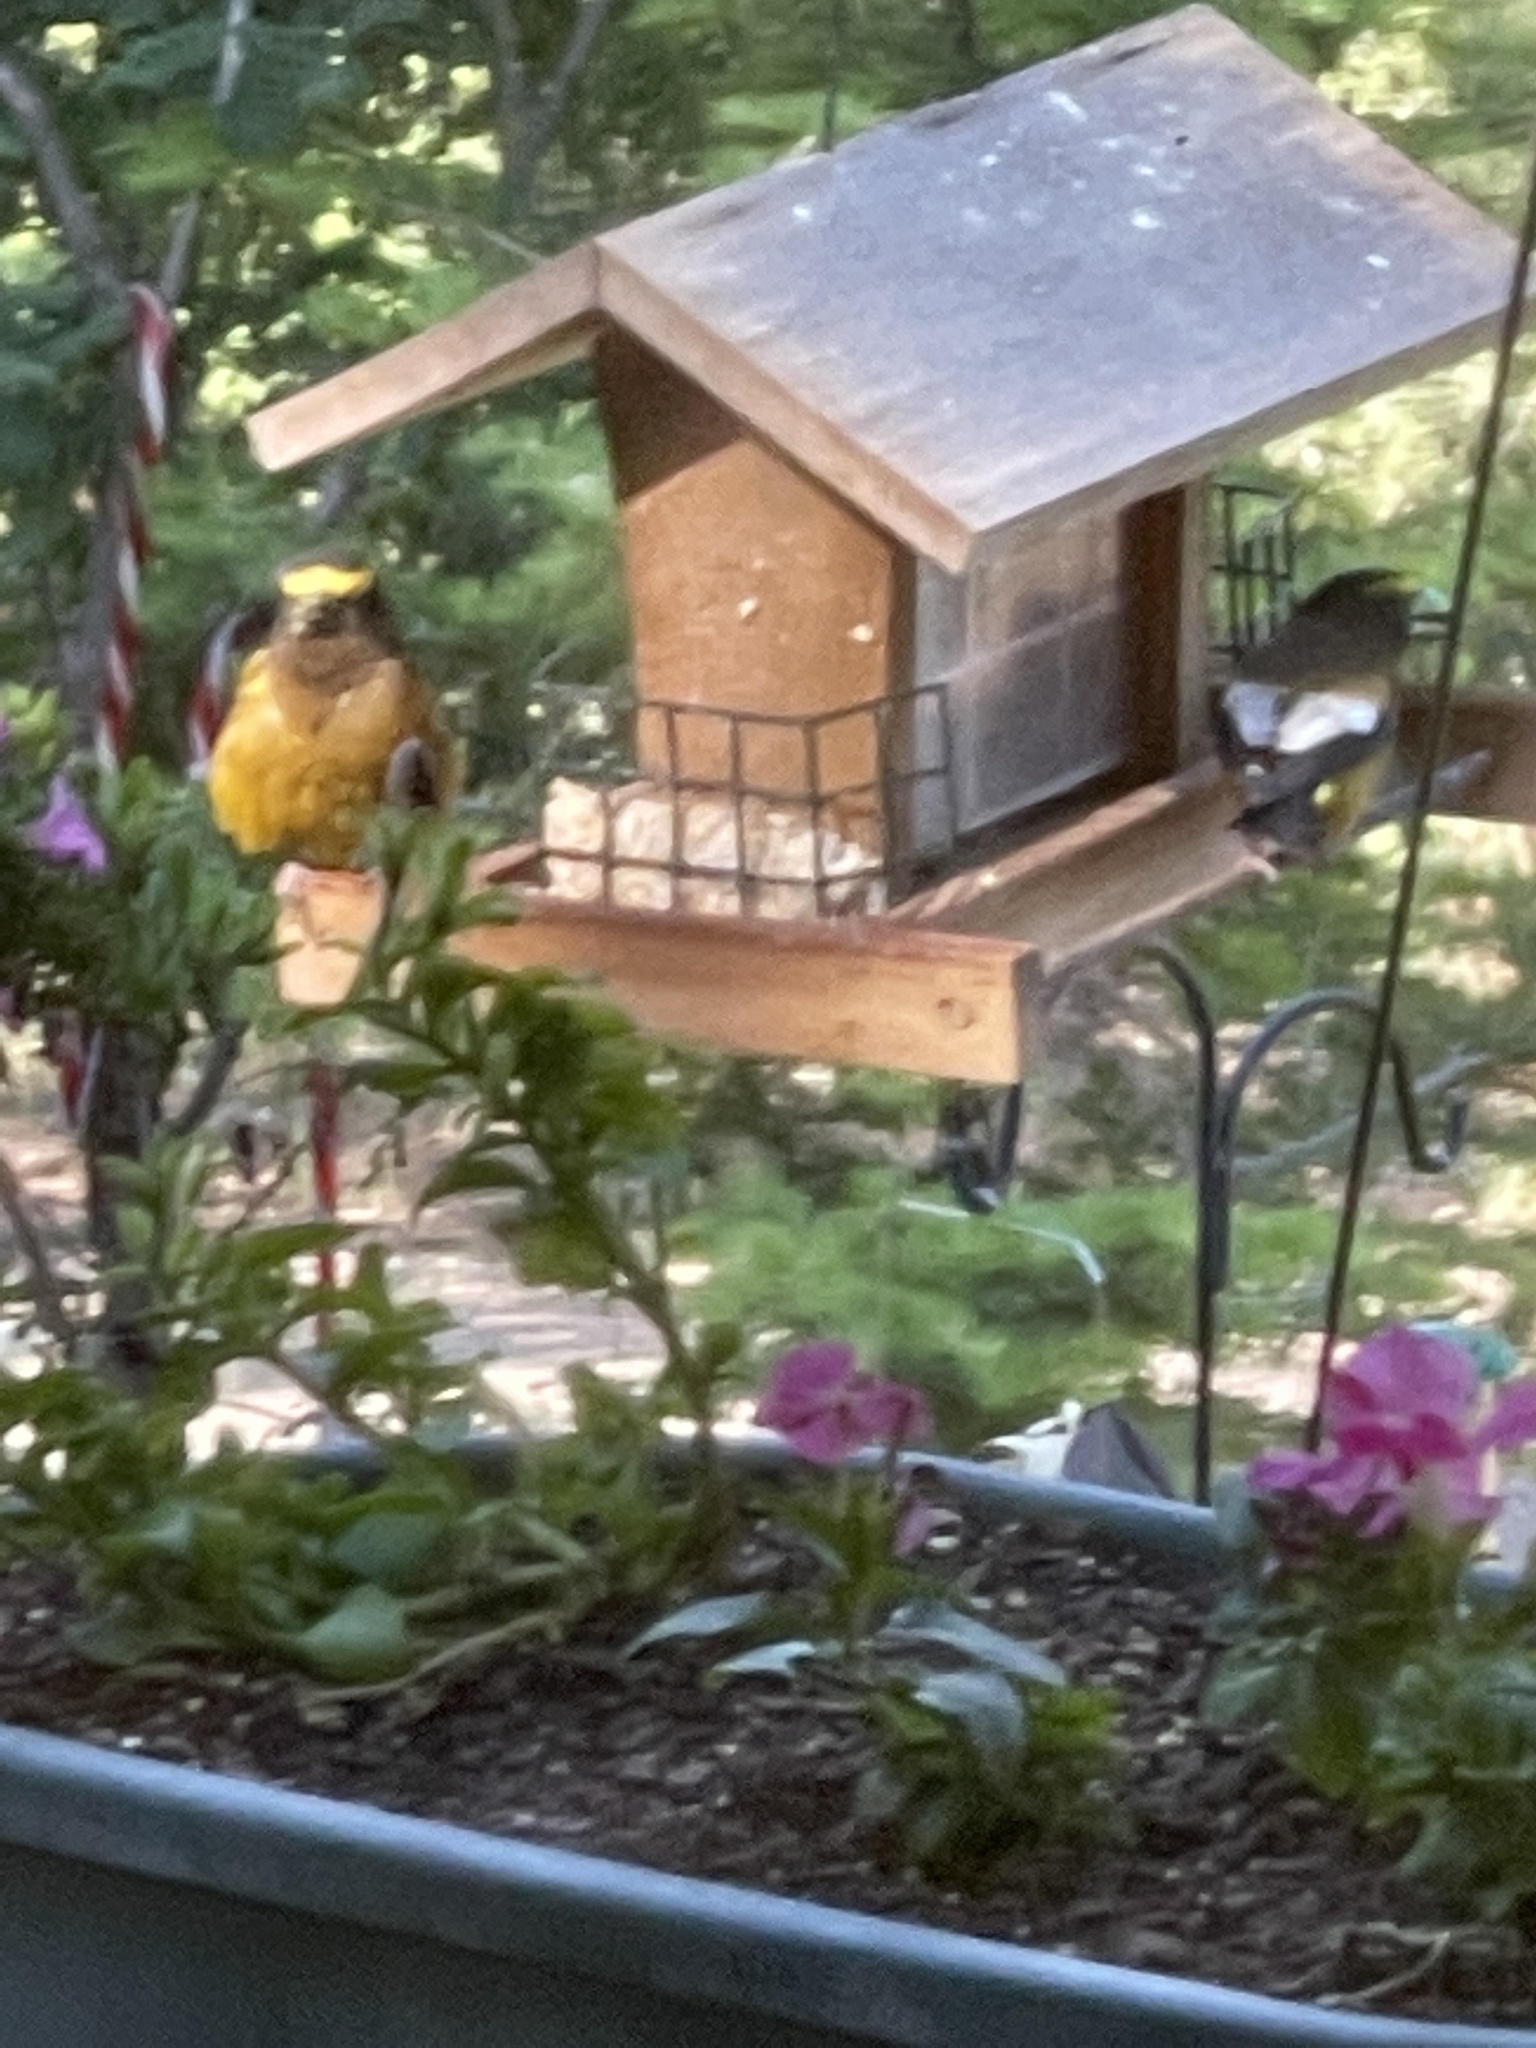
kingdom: Animalia
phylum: Chordata
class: Aves
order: Passeriformes
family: Fringillidae
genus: Hesperiphona
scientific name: Hesperiphona vespertina
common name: Evening grosbeak
